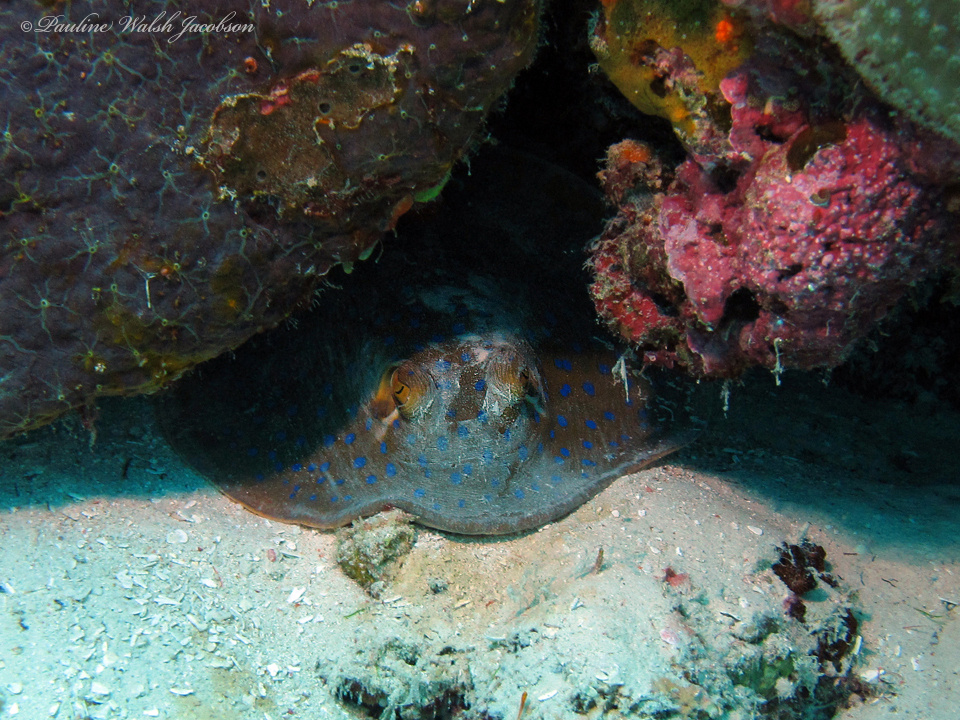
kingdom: Animalia
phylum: Chordata
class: Elasmobranchii
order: Myliobatiformes
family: Dasyatidae
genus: Taeniura
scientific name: Taeniura lymma
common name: Bluespotted ribbontail ray
